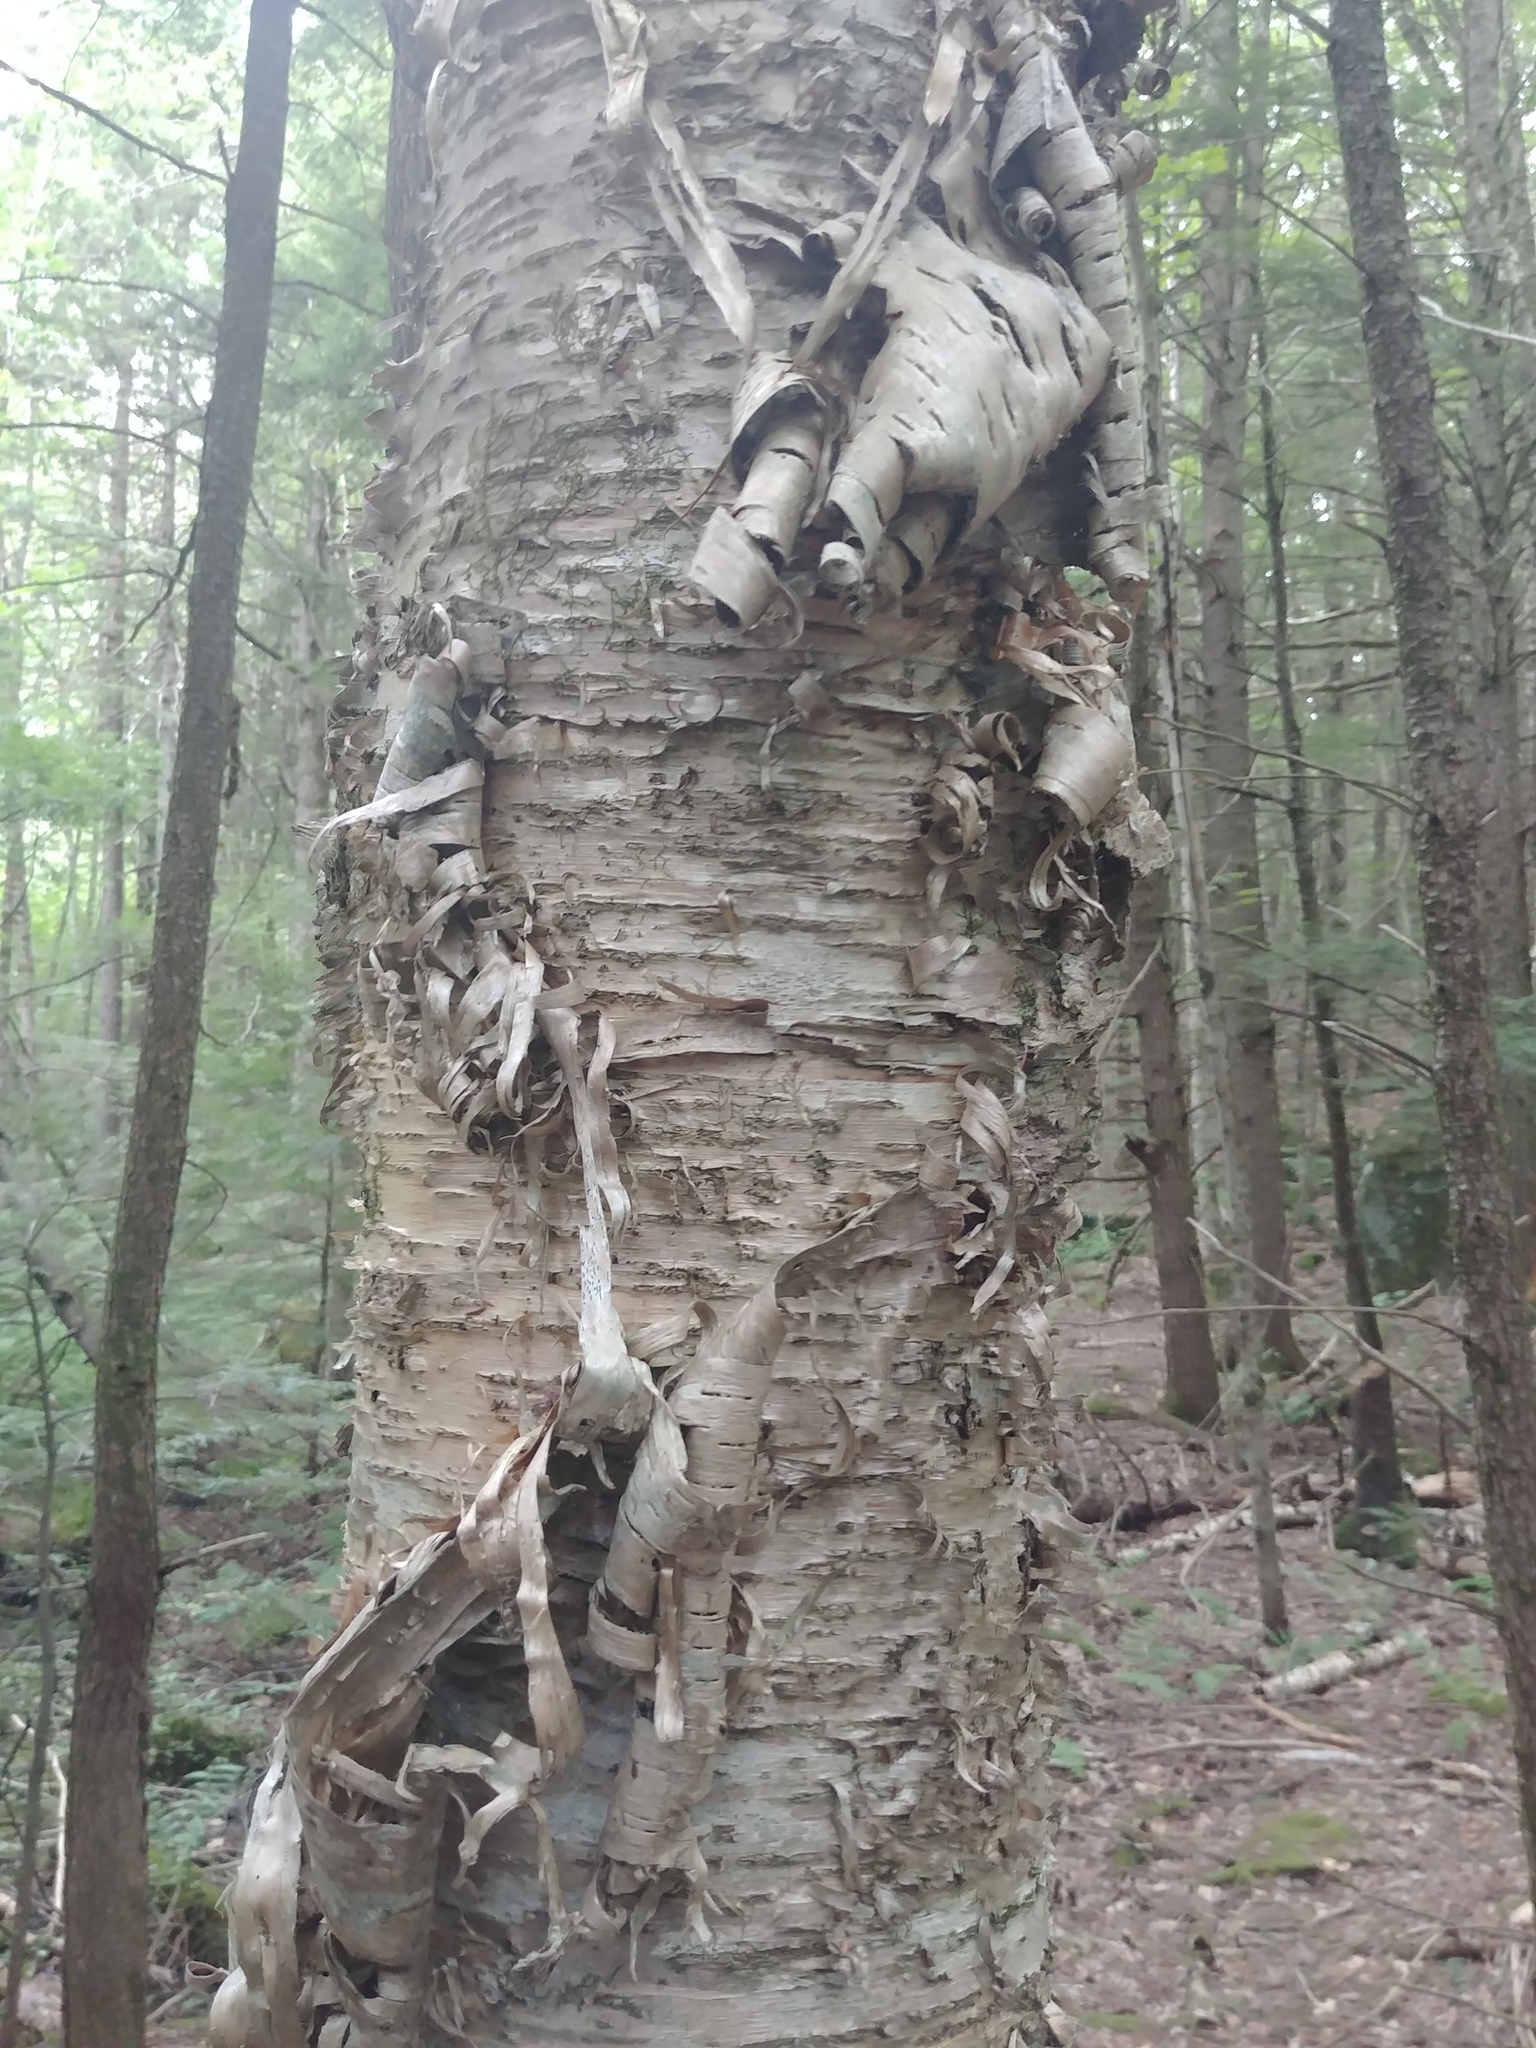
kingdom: Plantae
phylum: Tracheophyta
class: Magnoliopsida
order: Fagales
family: Betulaceae
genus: Betula
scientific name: Betula alleghaniensis
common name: Yellow birch
